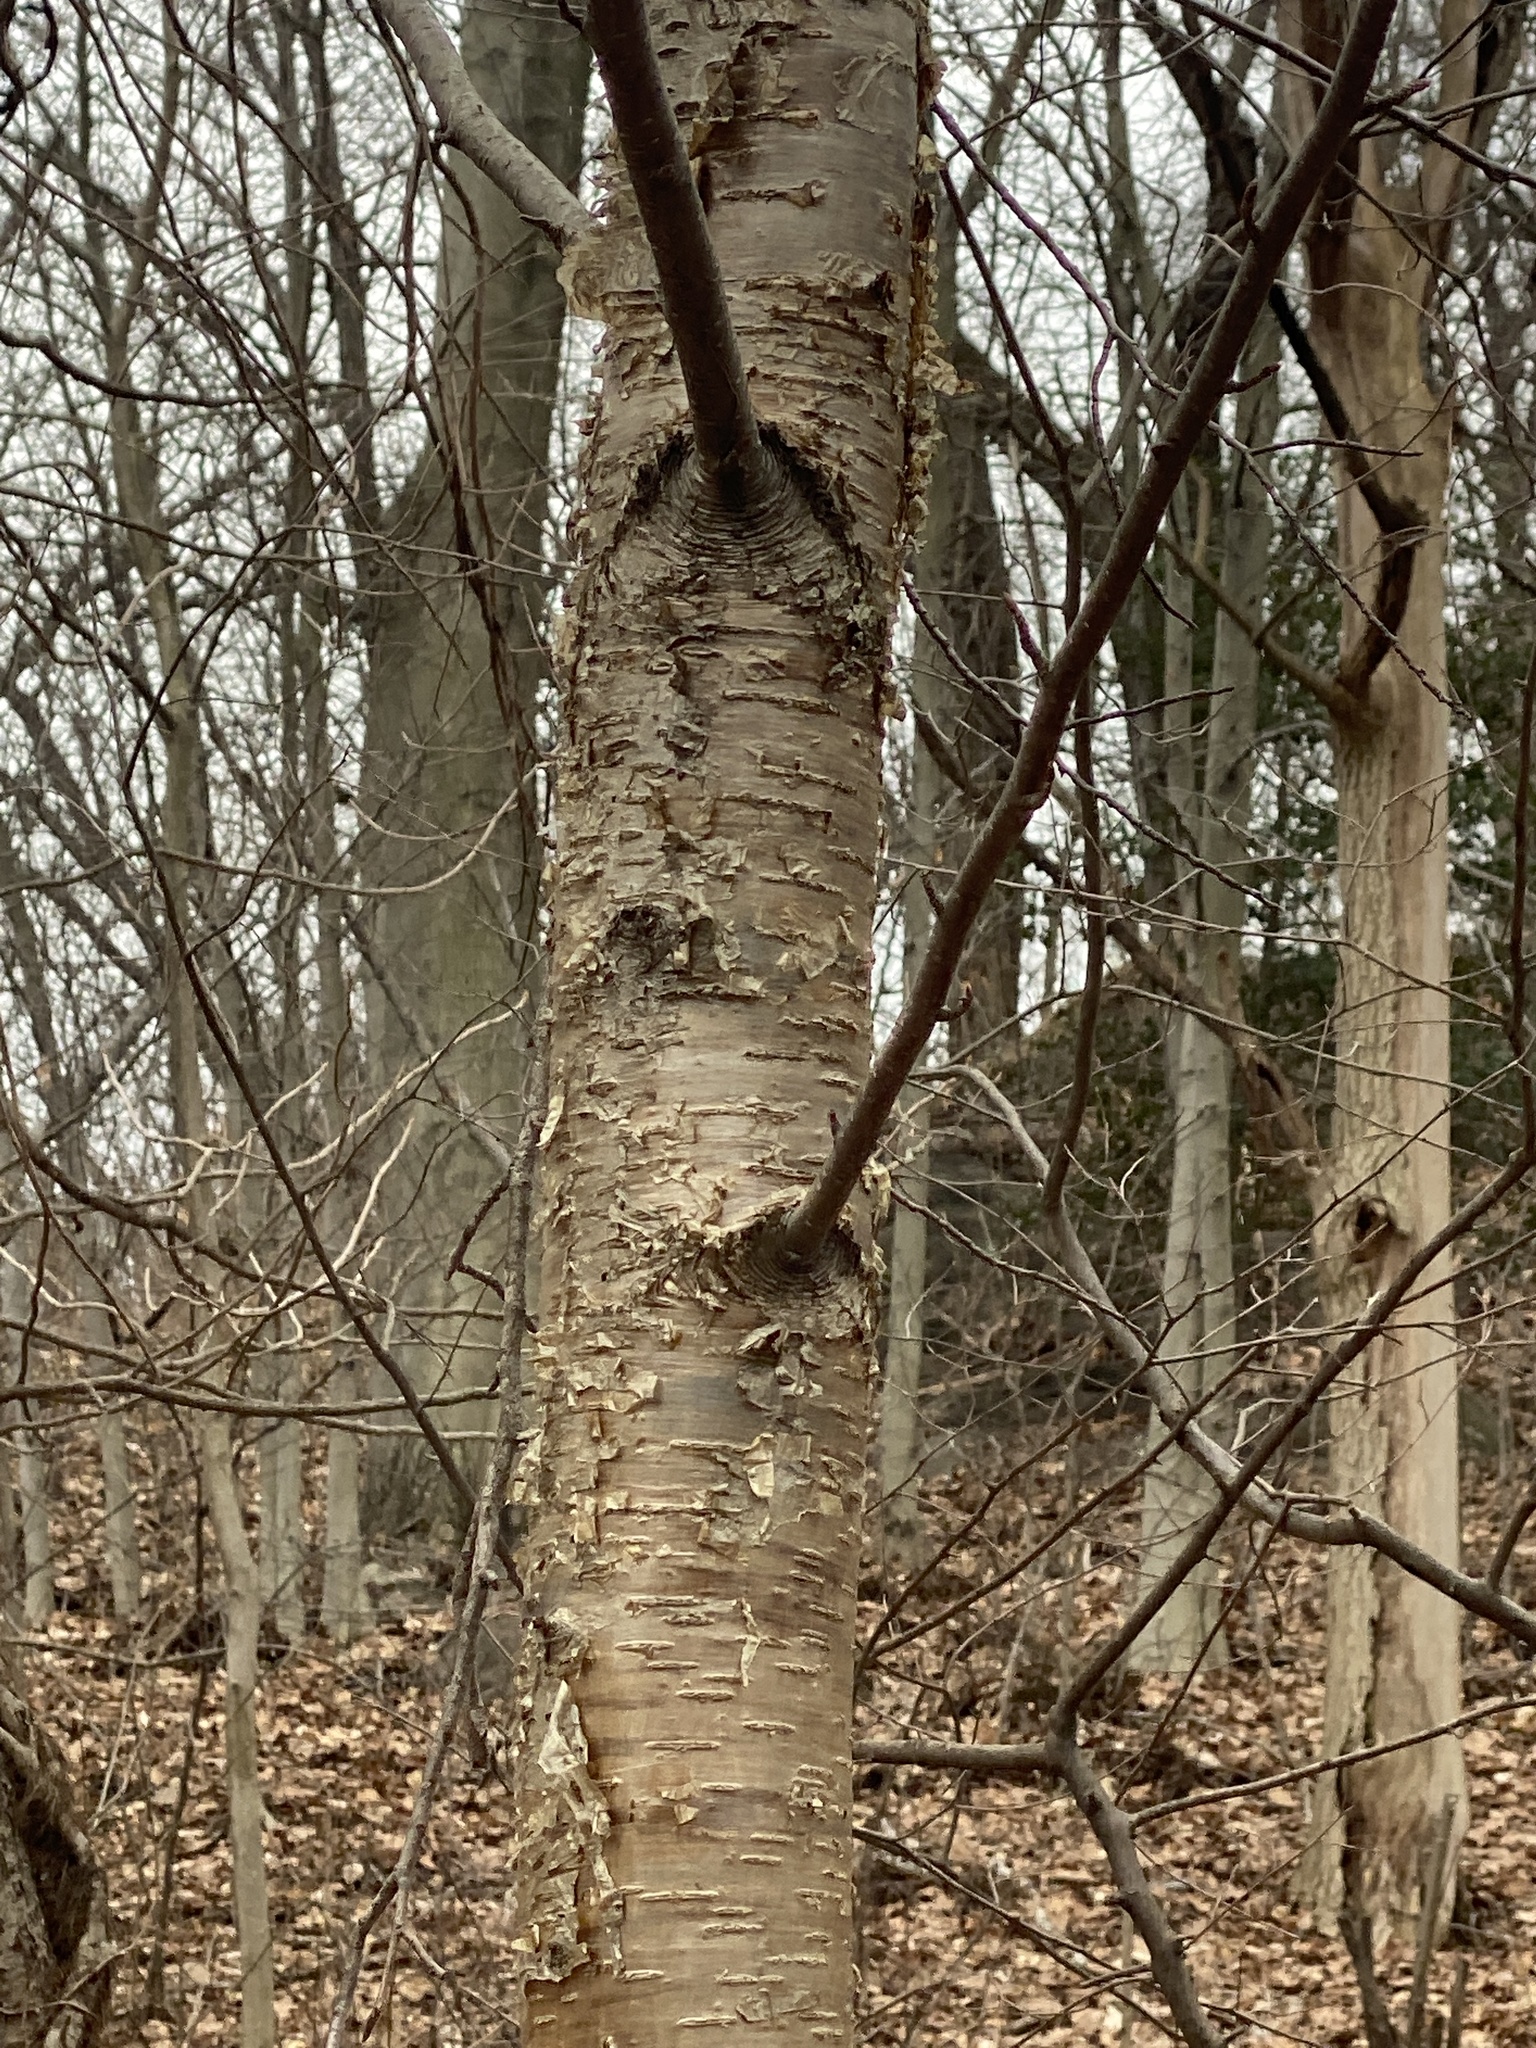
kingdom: Plantae
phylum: Tracheophyta
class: Magnoliopsida
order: Fagales
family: Betulaceae
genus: Betula
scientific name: Betula alleghaniensis
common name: Yellow birch
